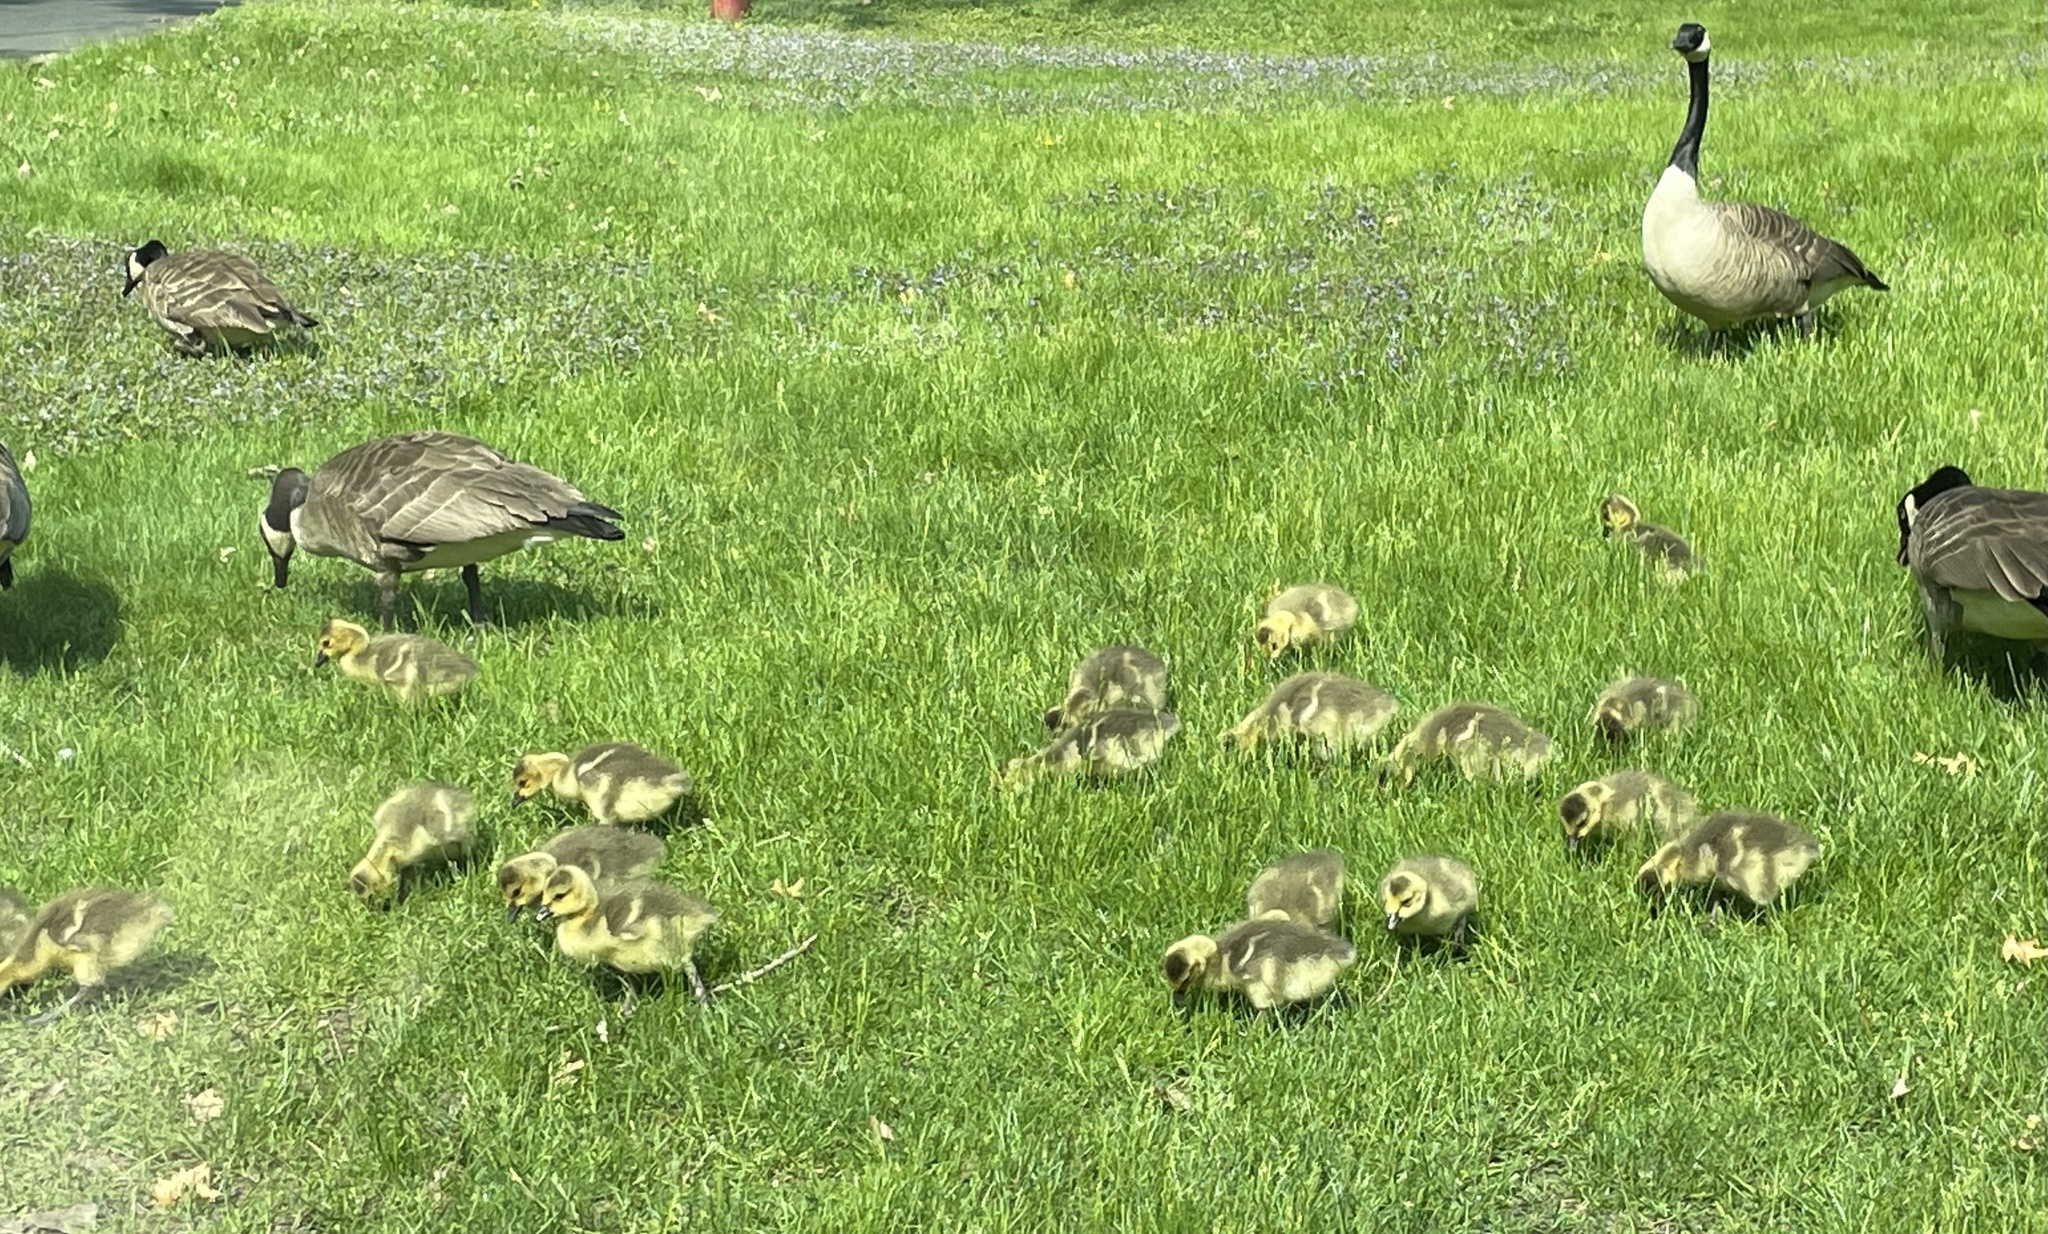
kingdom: Animalia
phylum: Chordata
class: Aves
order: Anseriformes
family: Anatidae
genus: Branta
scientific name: Branta canadensis
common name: Canada goose
